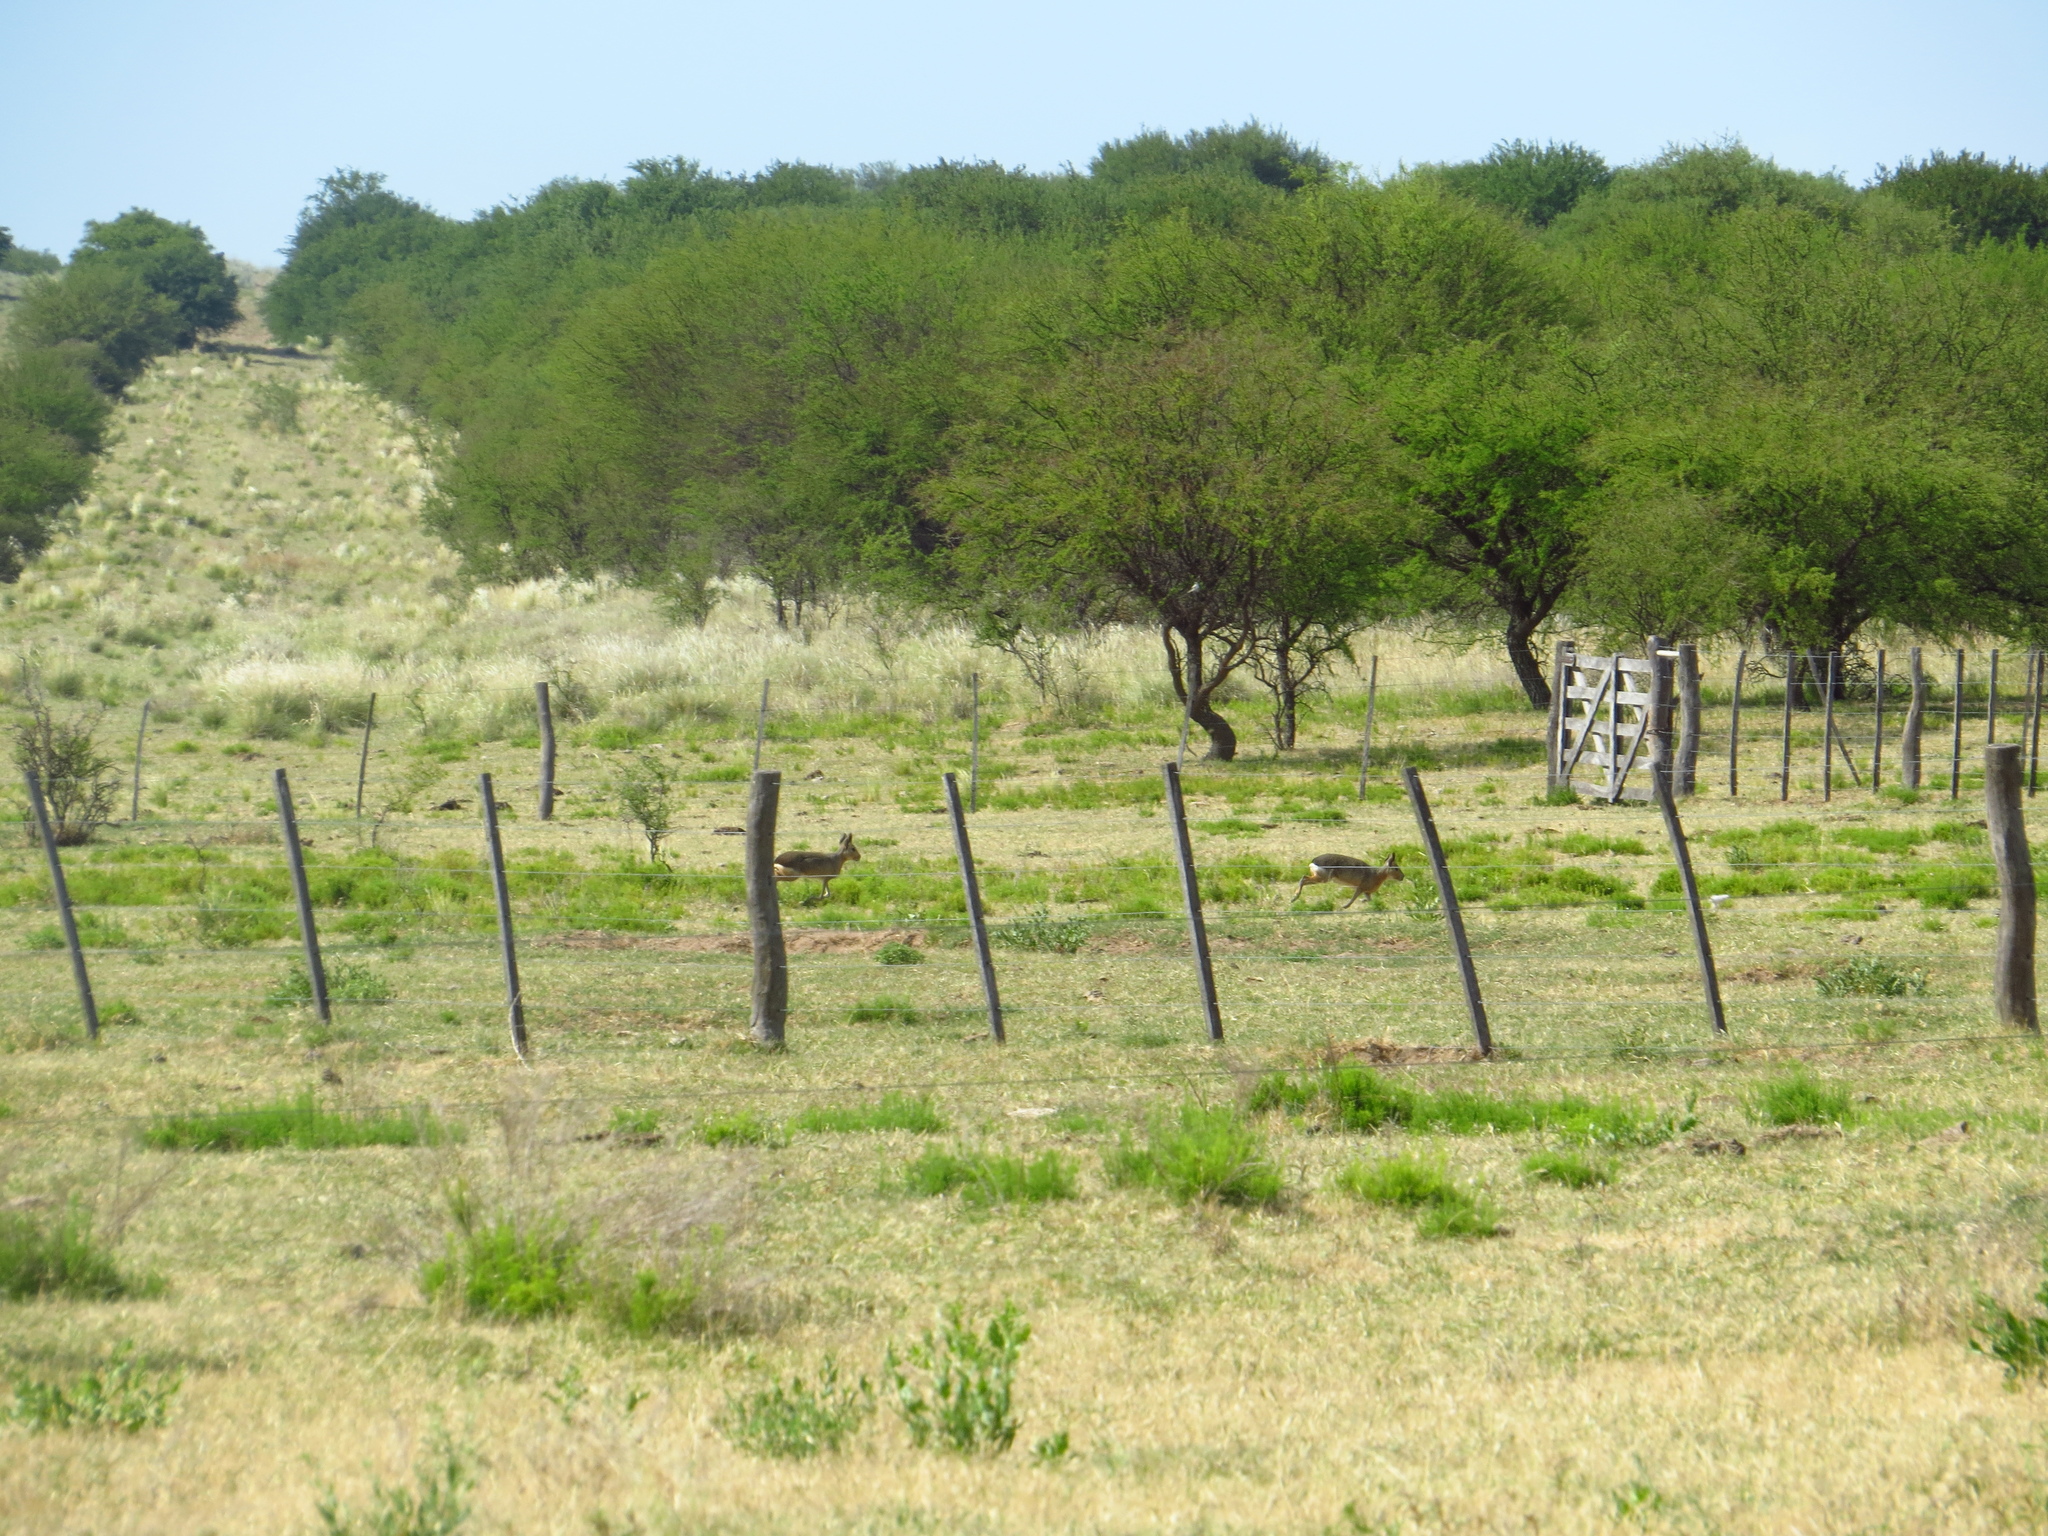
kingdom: Animalia
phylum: Chordata
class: Mammalia
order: Rodentia
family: Caviidae
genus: Dolichotis
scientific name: Dolichotis patagonum
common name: Patagonian mara
